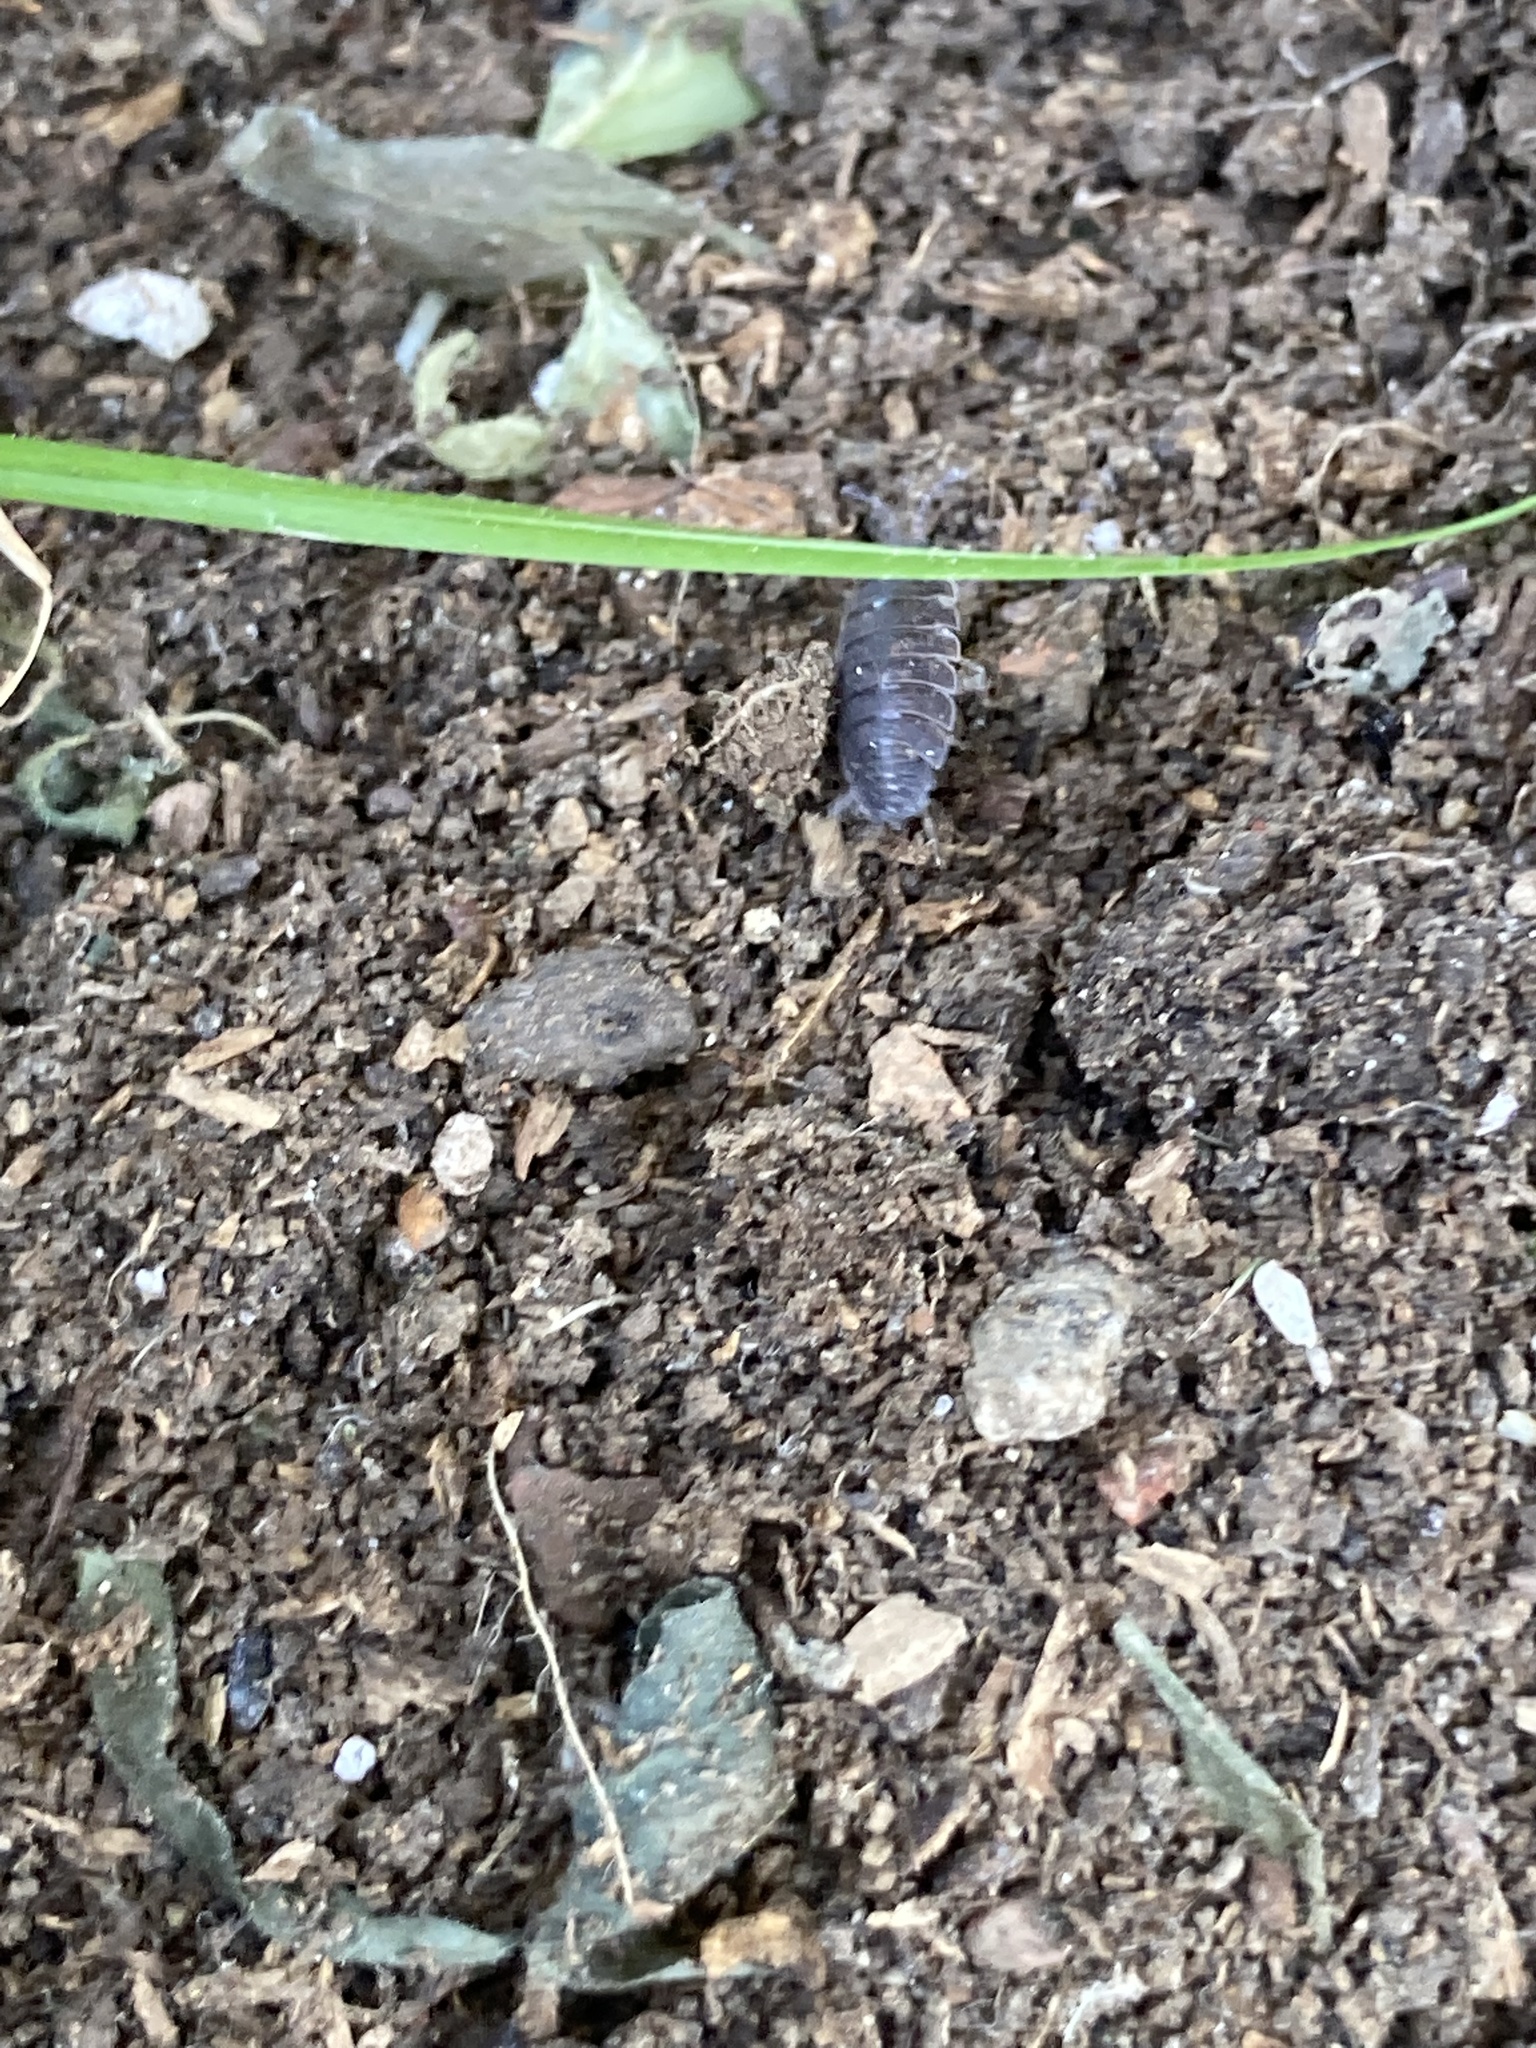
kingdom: Animalia
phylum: Arthropoda
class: Malacostraca
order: Isopoda
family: Porcellionidae
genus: Porcellio
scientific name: Porcellio scaber
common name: Common rough woodlouse
